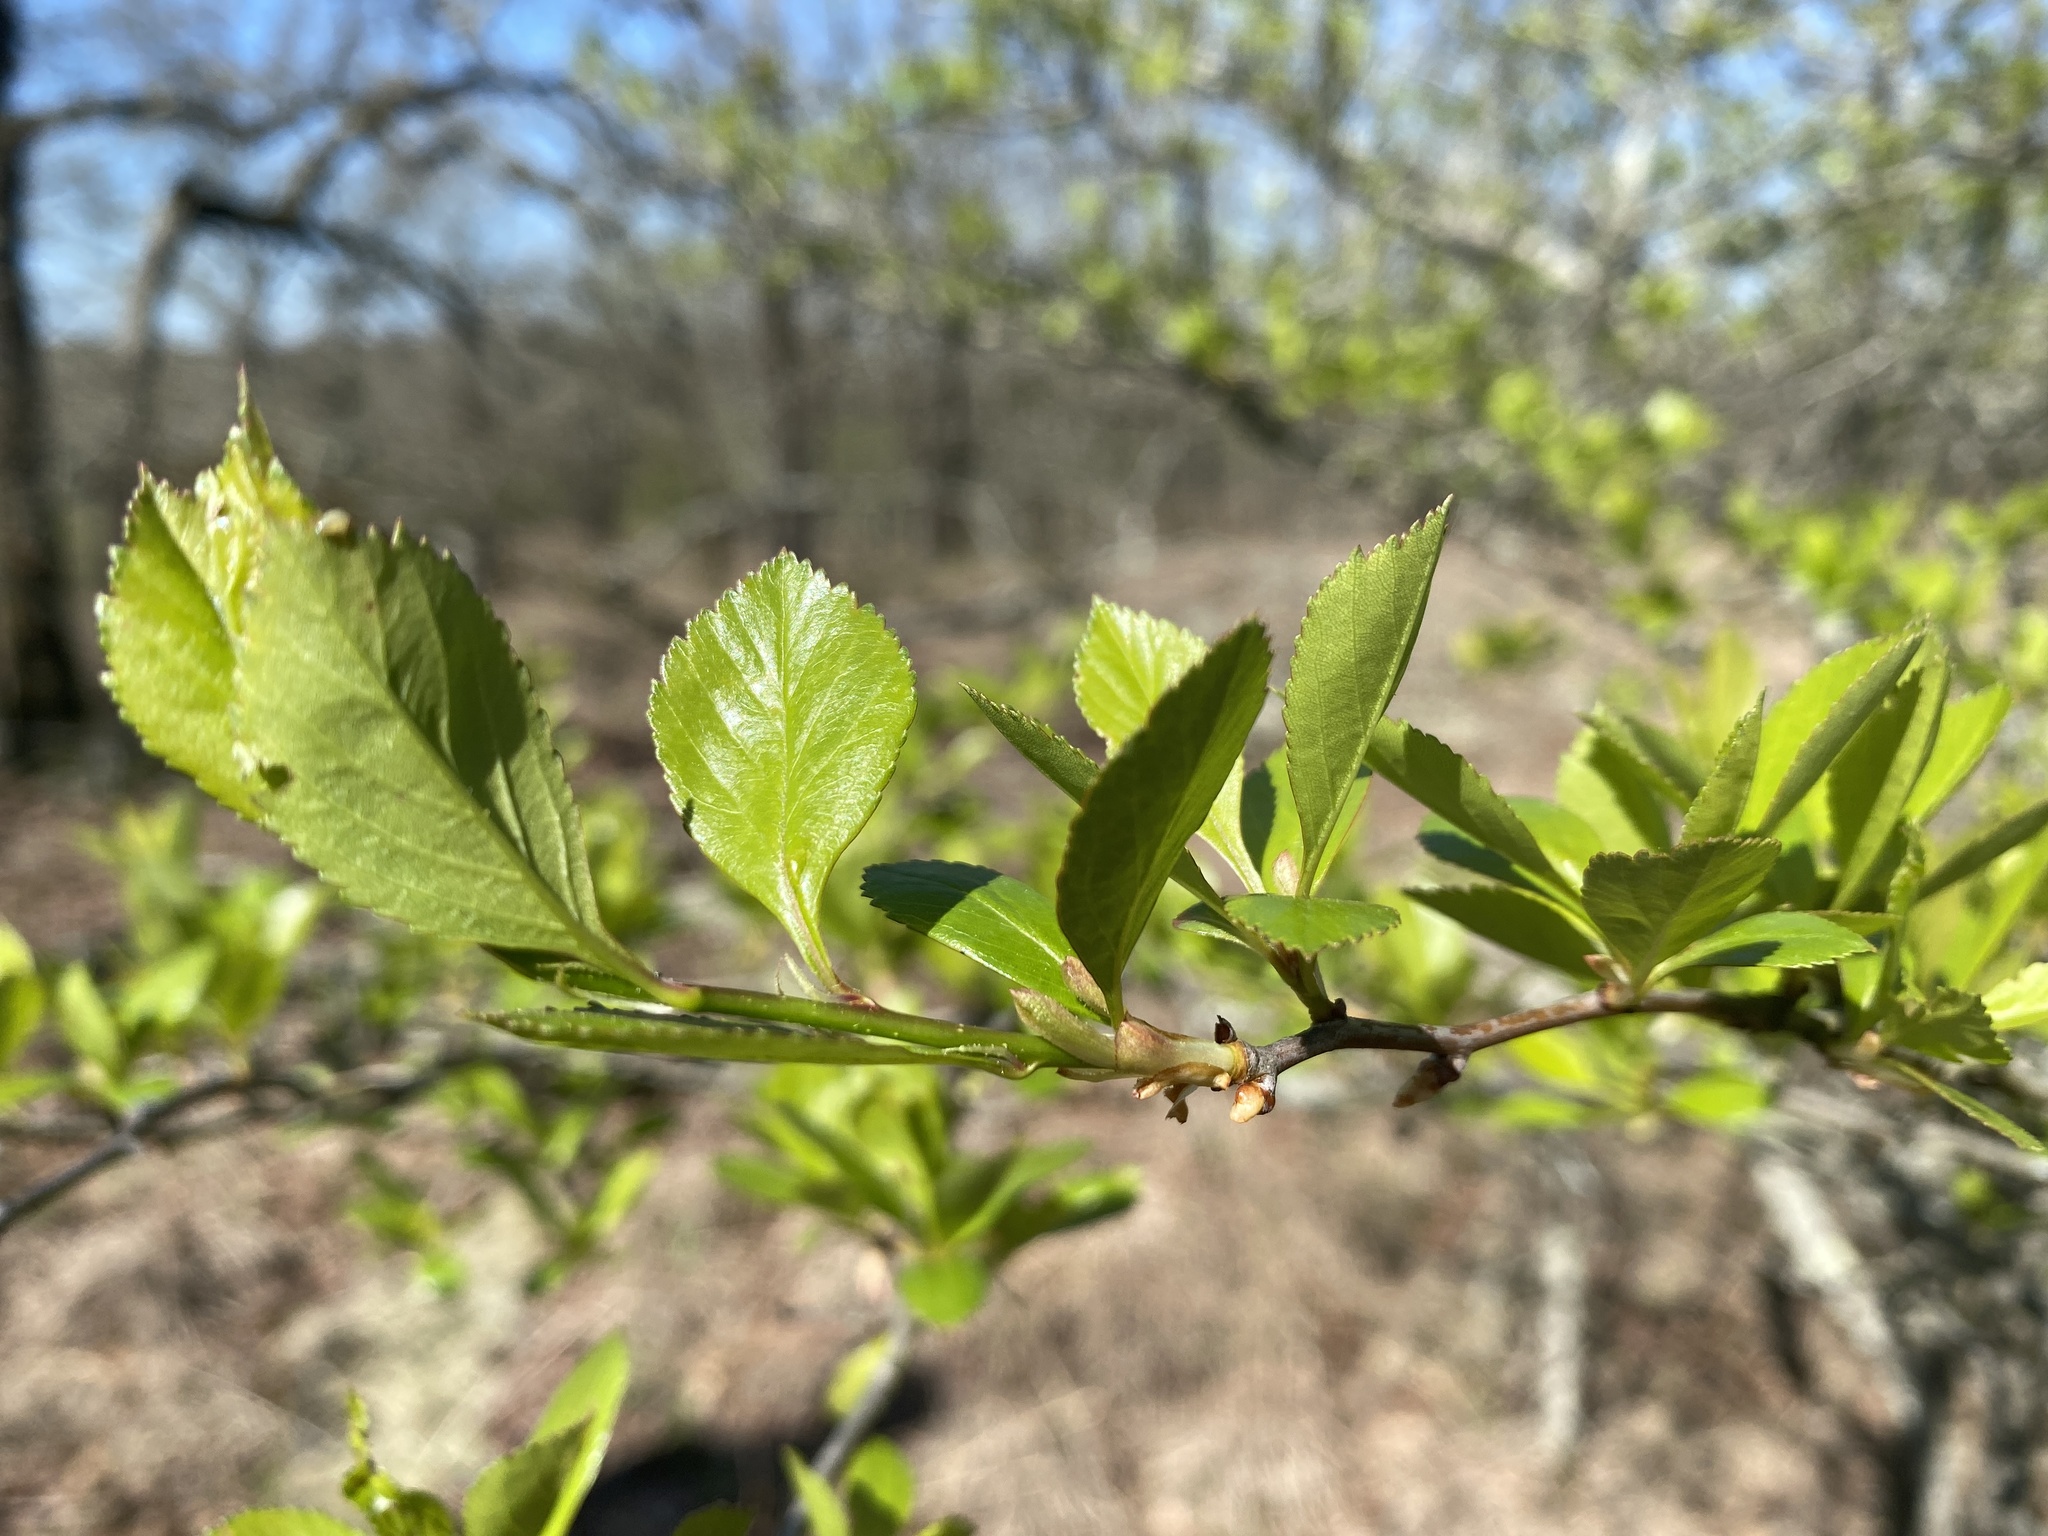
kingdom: Plantae
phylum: Tracheophyta
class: Magnoliopsida
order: Rosales
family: Rosaceae
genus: Crataegus
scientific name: Crataegus viridis
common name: Southernthorn
